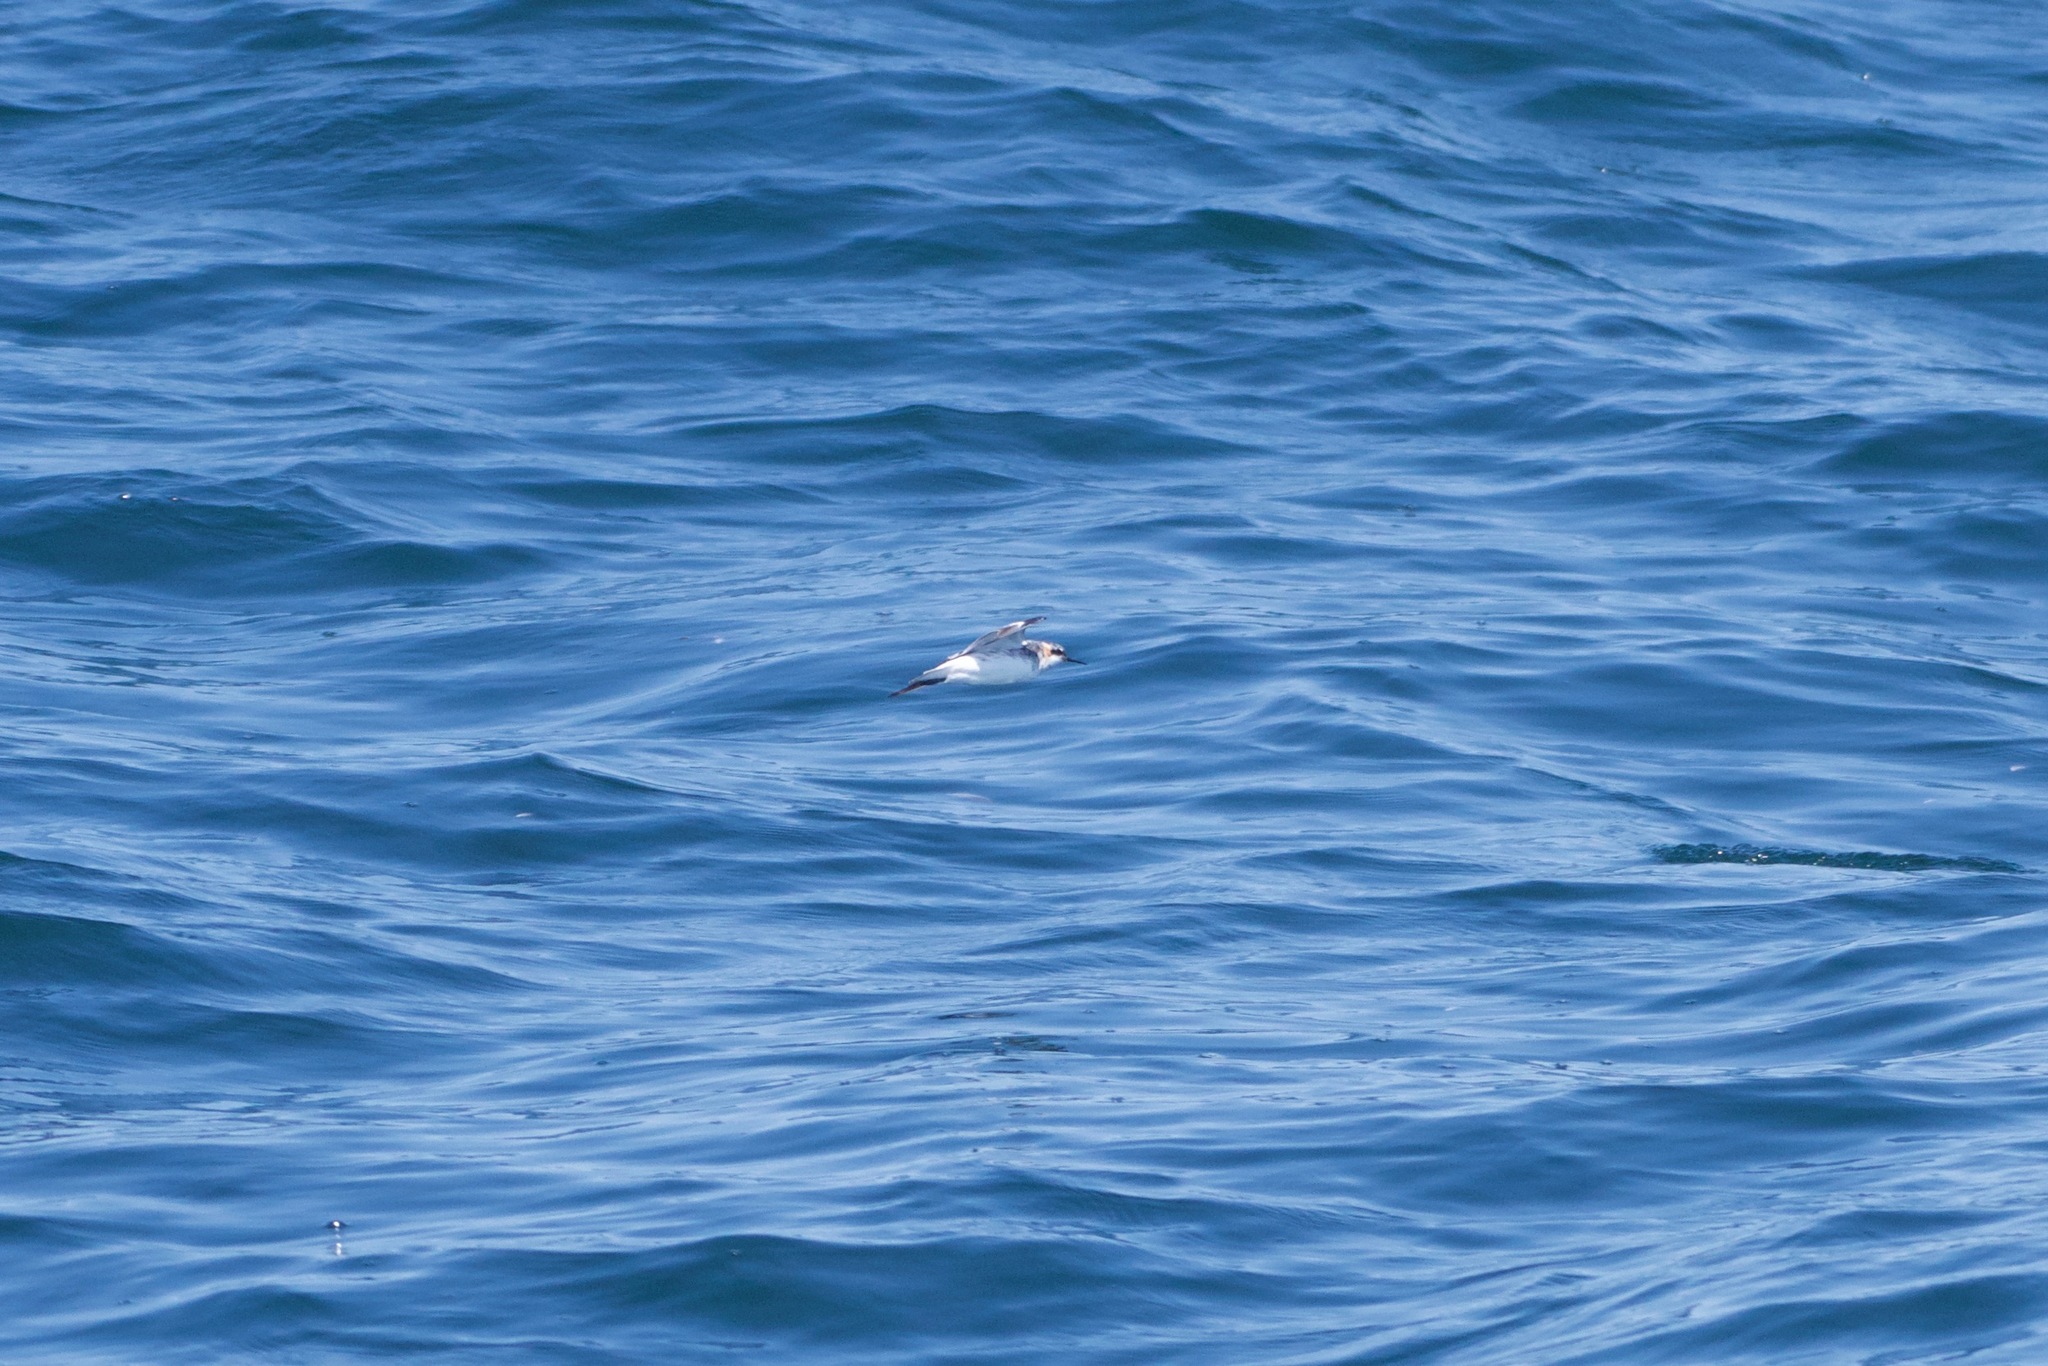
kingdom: Animalia
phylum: Chordata
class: Aves
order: Charadriiformes
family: Scolopacidae
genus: Phalaropus
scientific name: Phalaropus lobatus
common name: Red-necked phalarope
